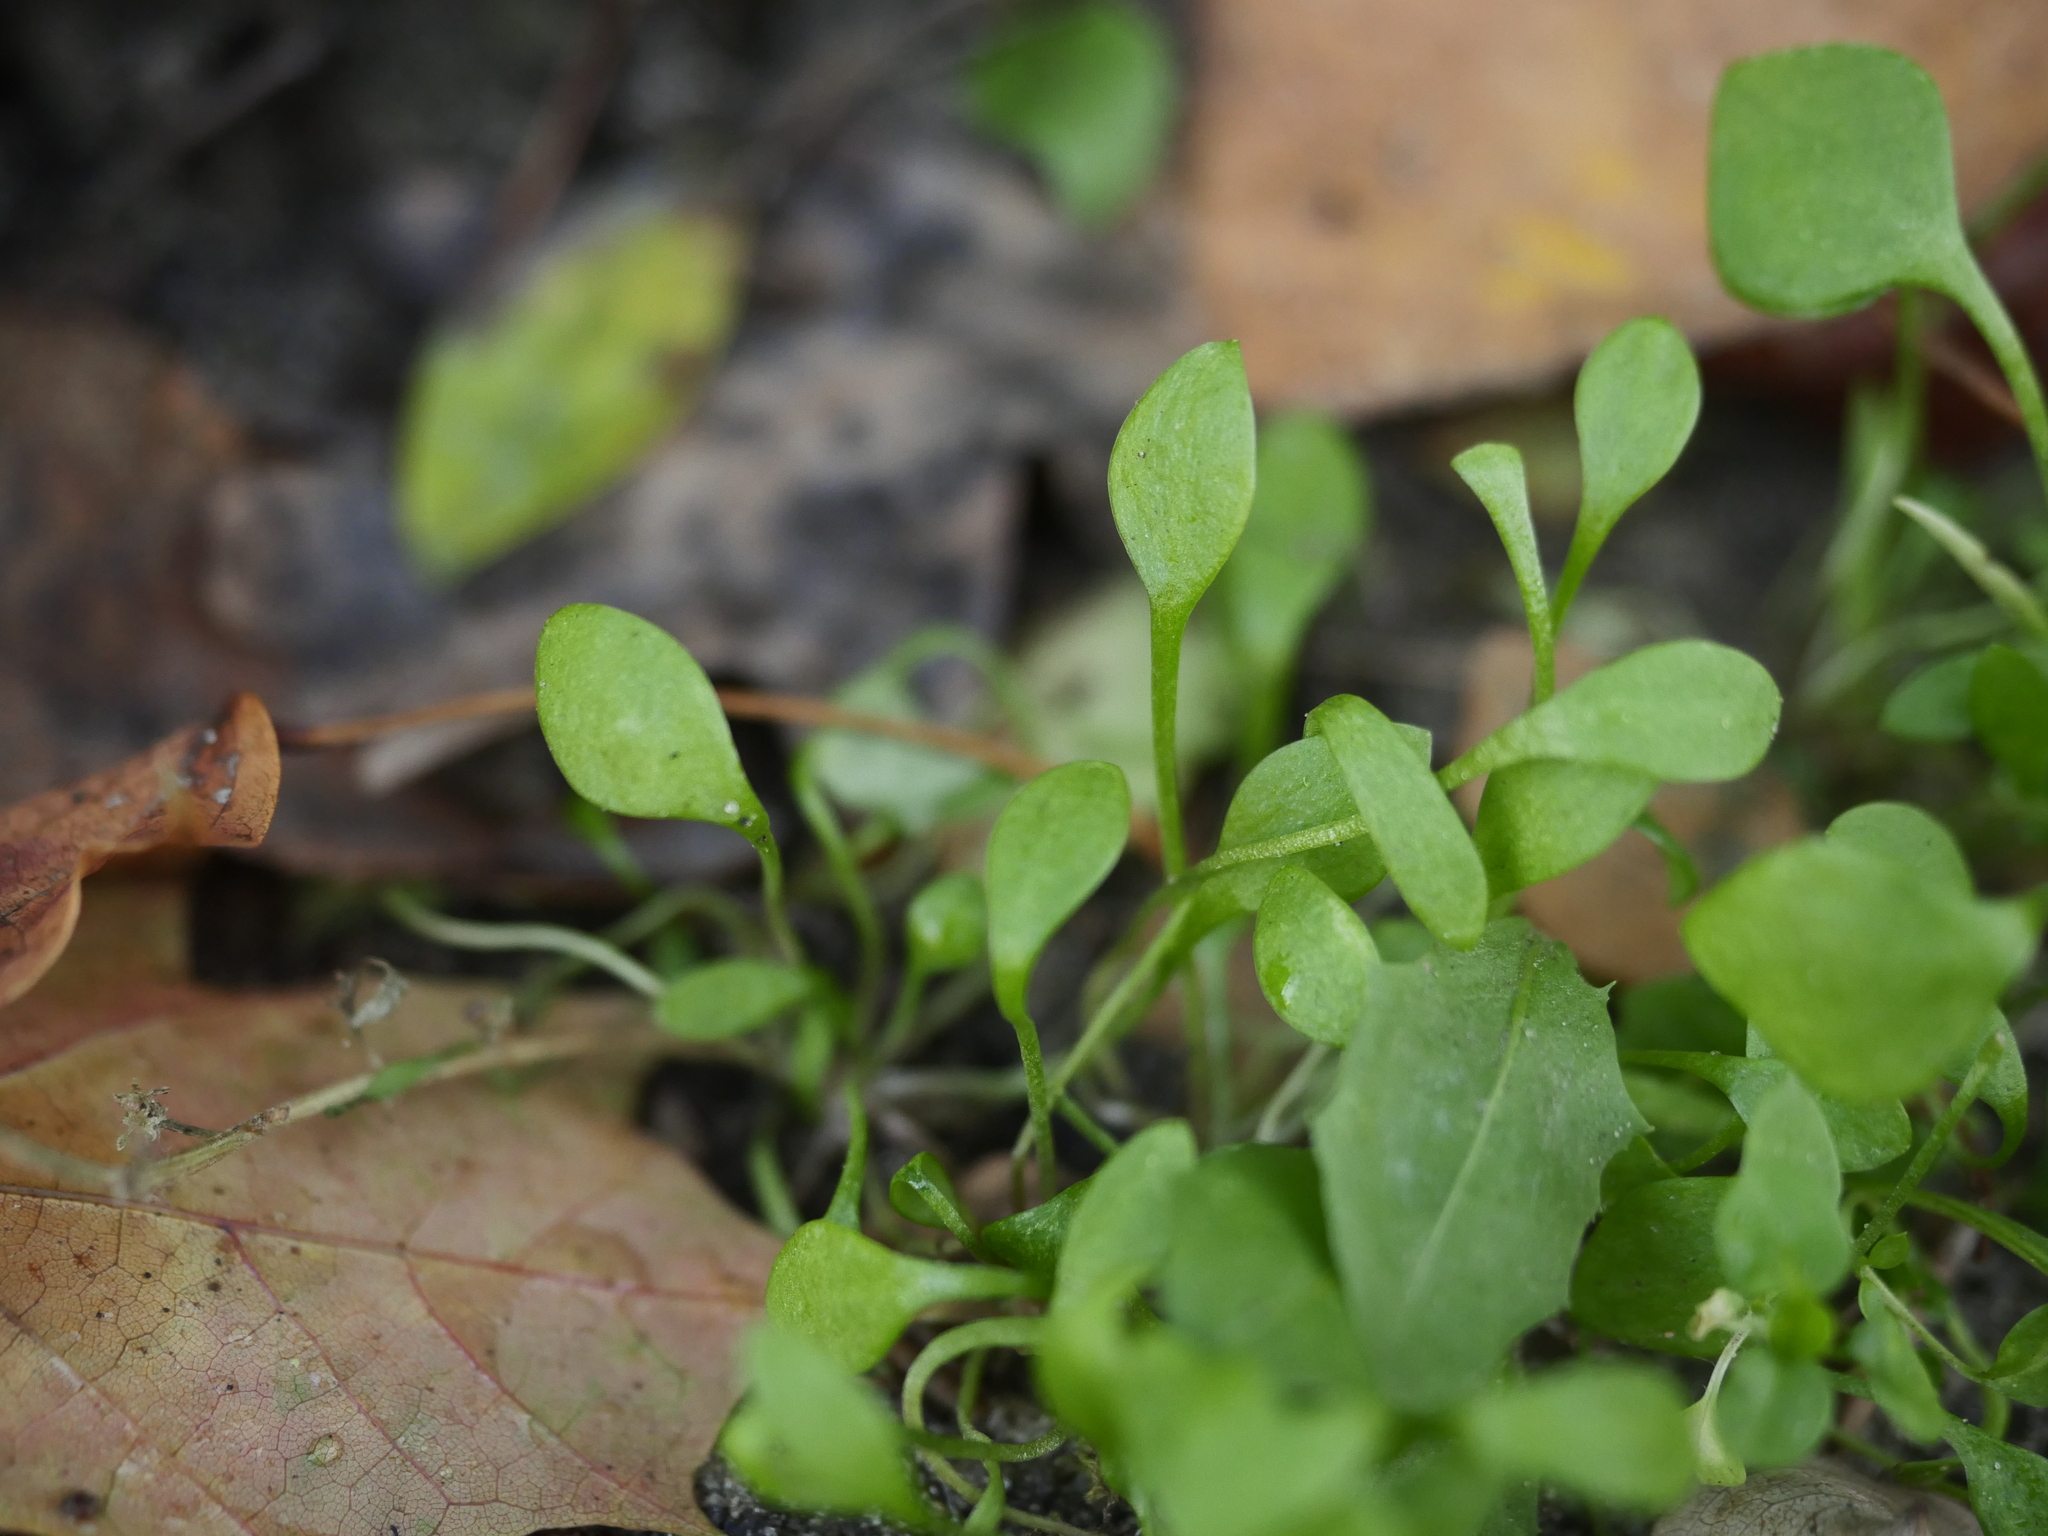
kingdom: Plantae
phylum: Tracheophyta
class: Magnoliopsida
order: Caryophyllales
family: Montiaceae
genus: Claytonia
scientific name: Claytonia perfoliata
